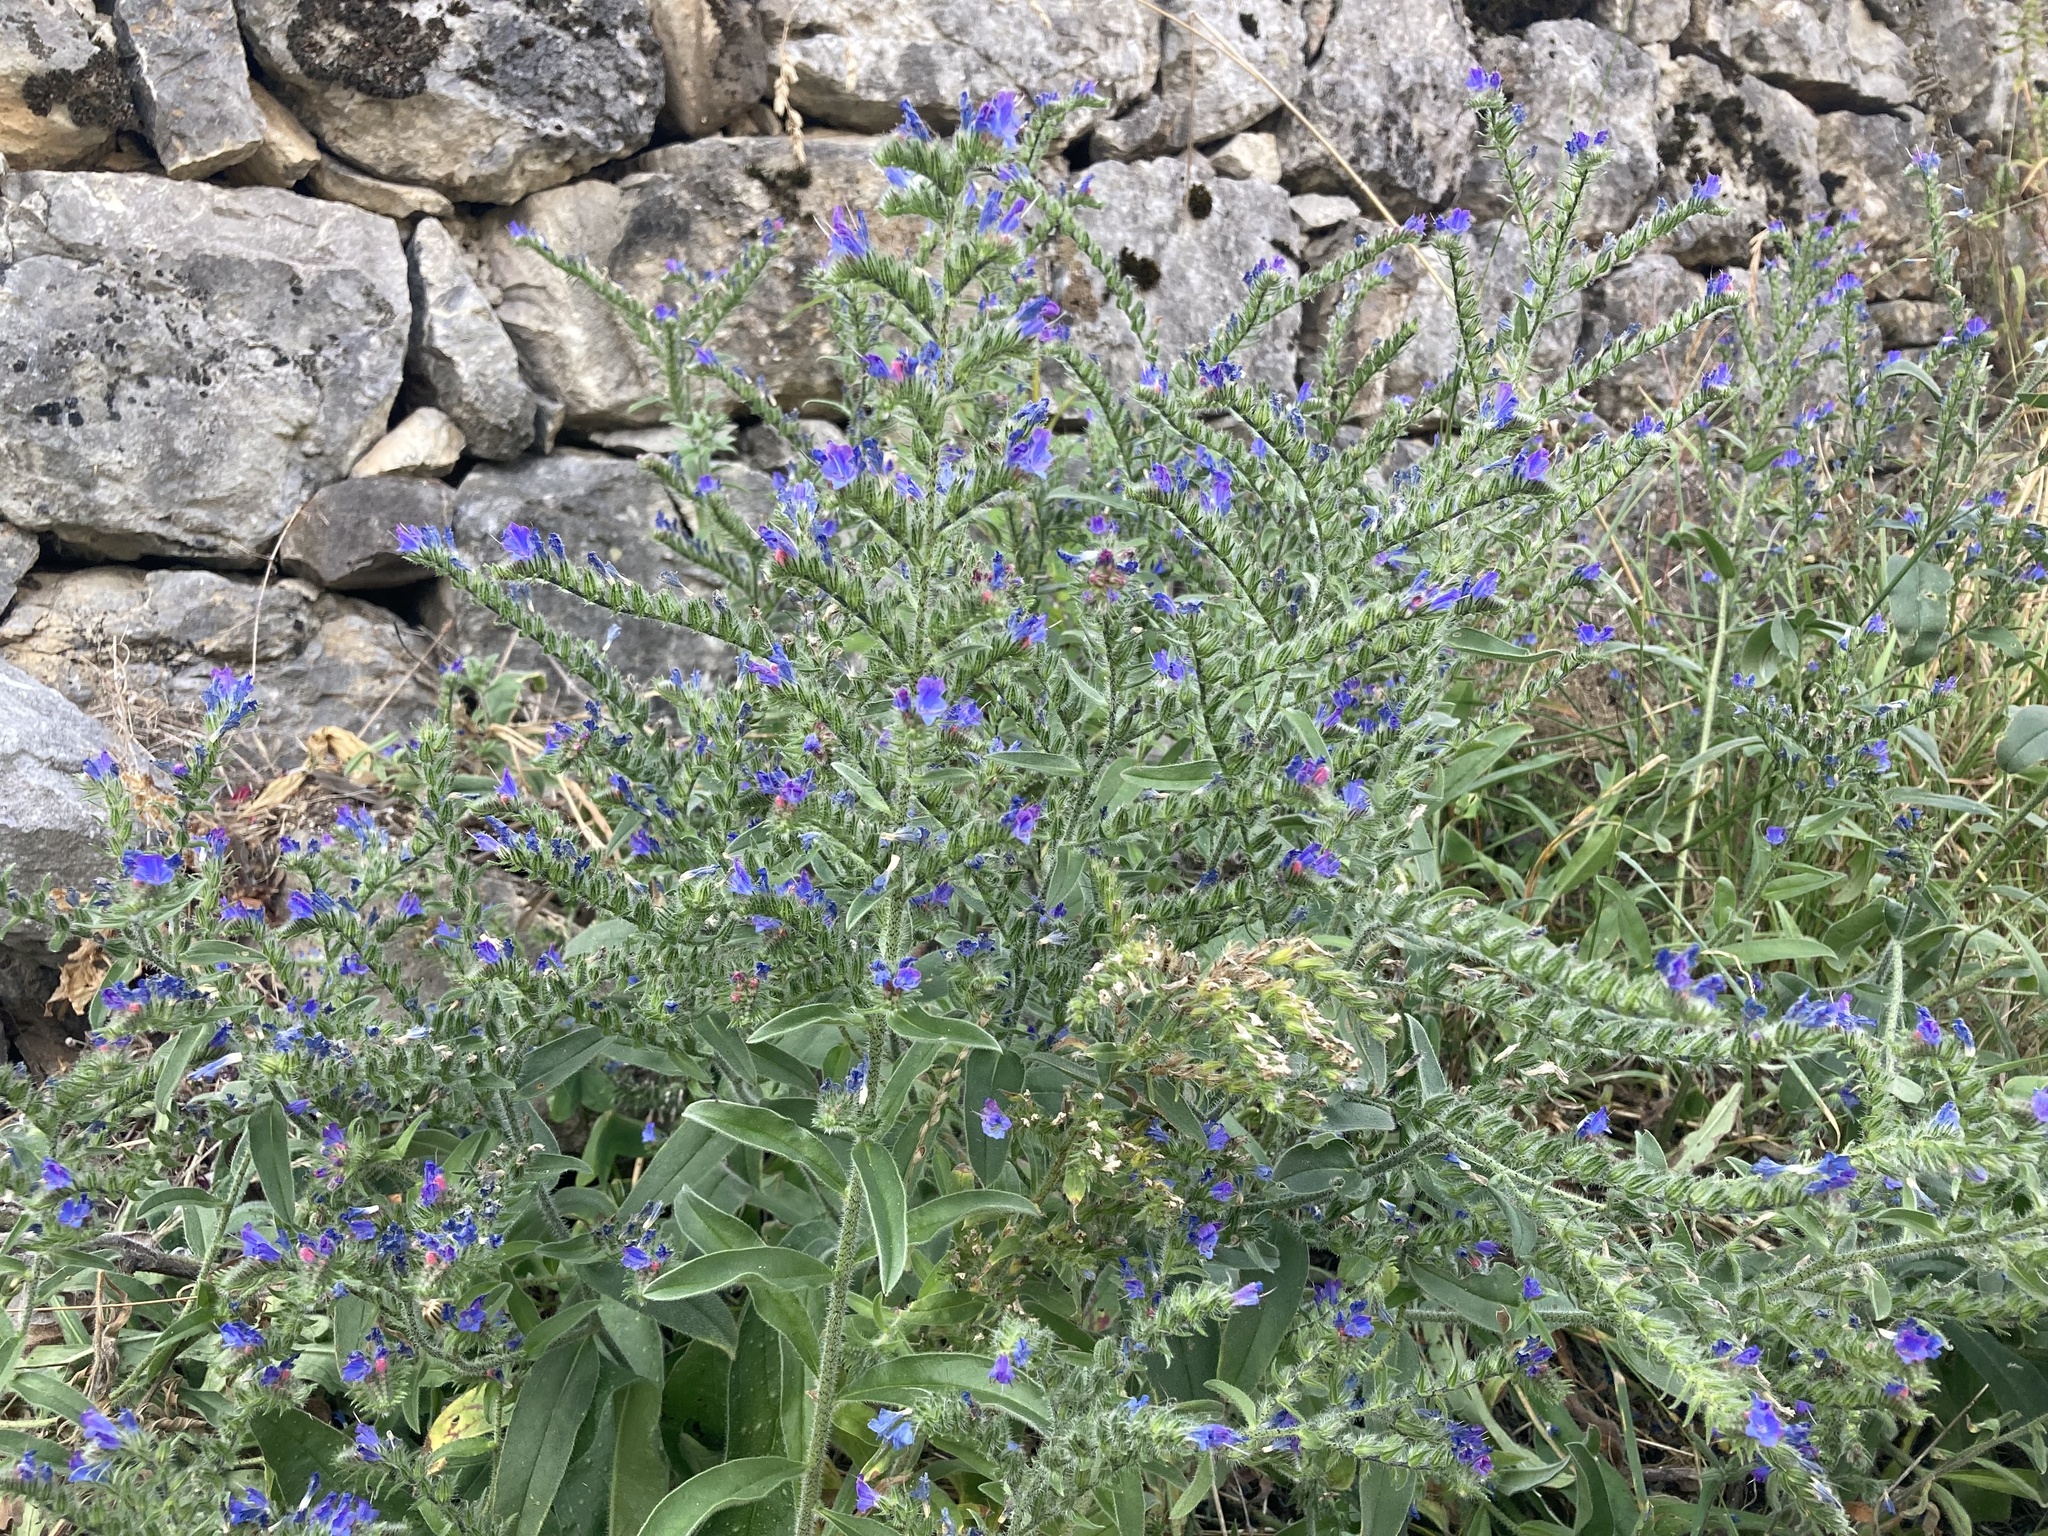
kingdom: Plantae
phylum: Tracheophyta
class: Magnoliopsida
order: Boraginales
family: Boraginaceae
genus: Echium
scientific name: Echium vulgare
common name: Common viper's bugloss
